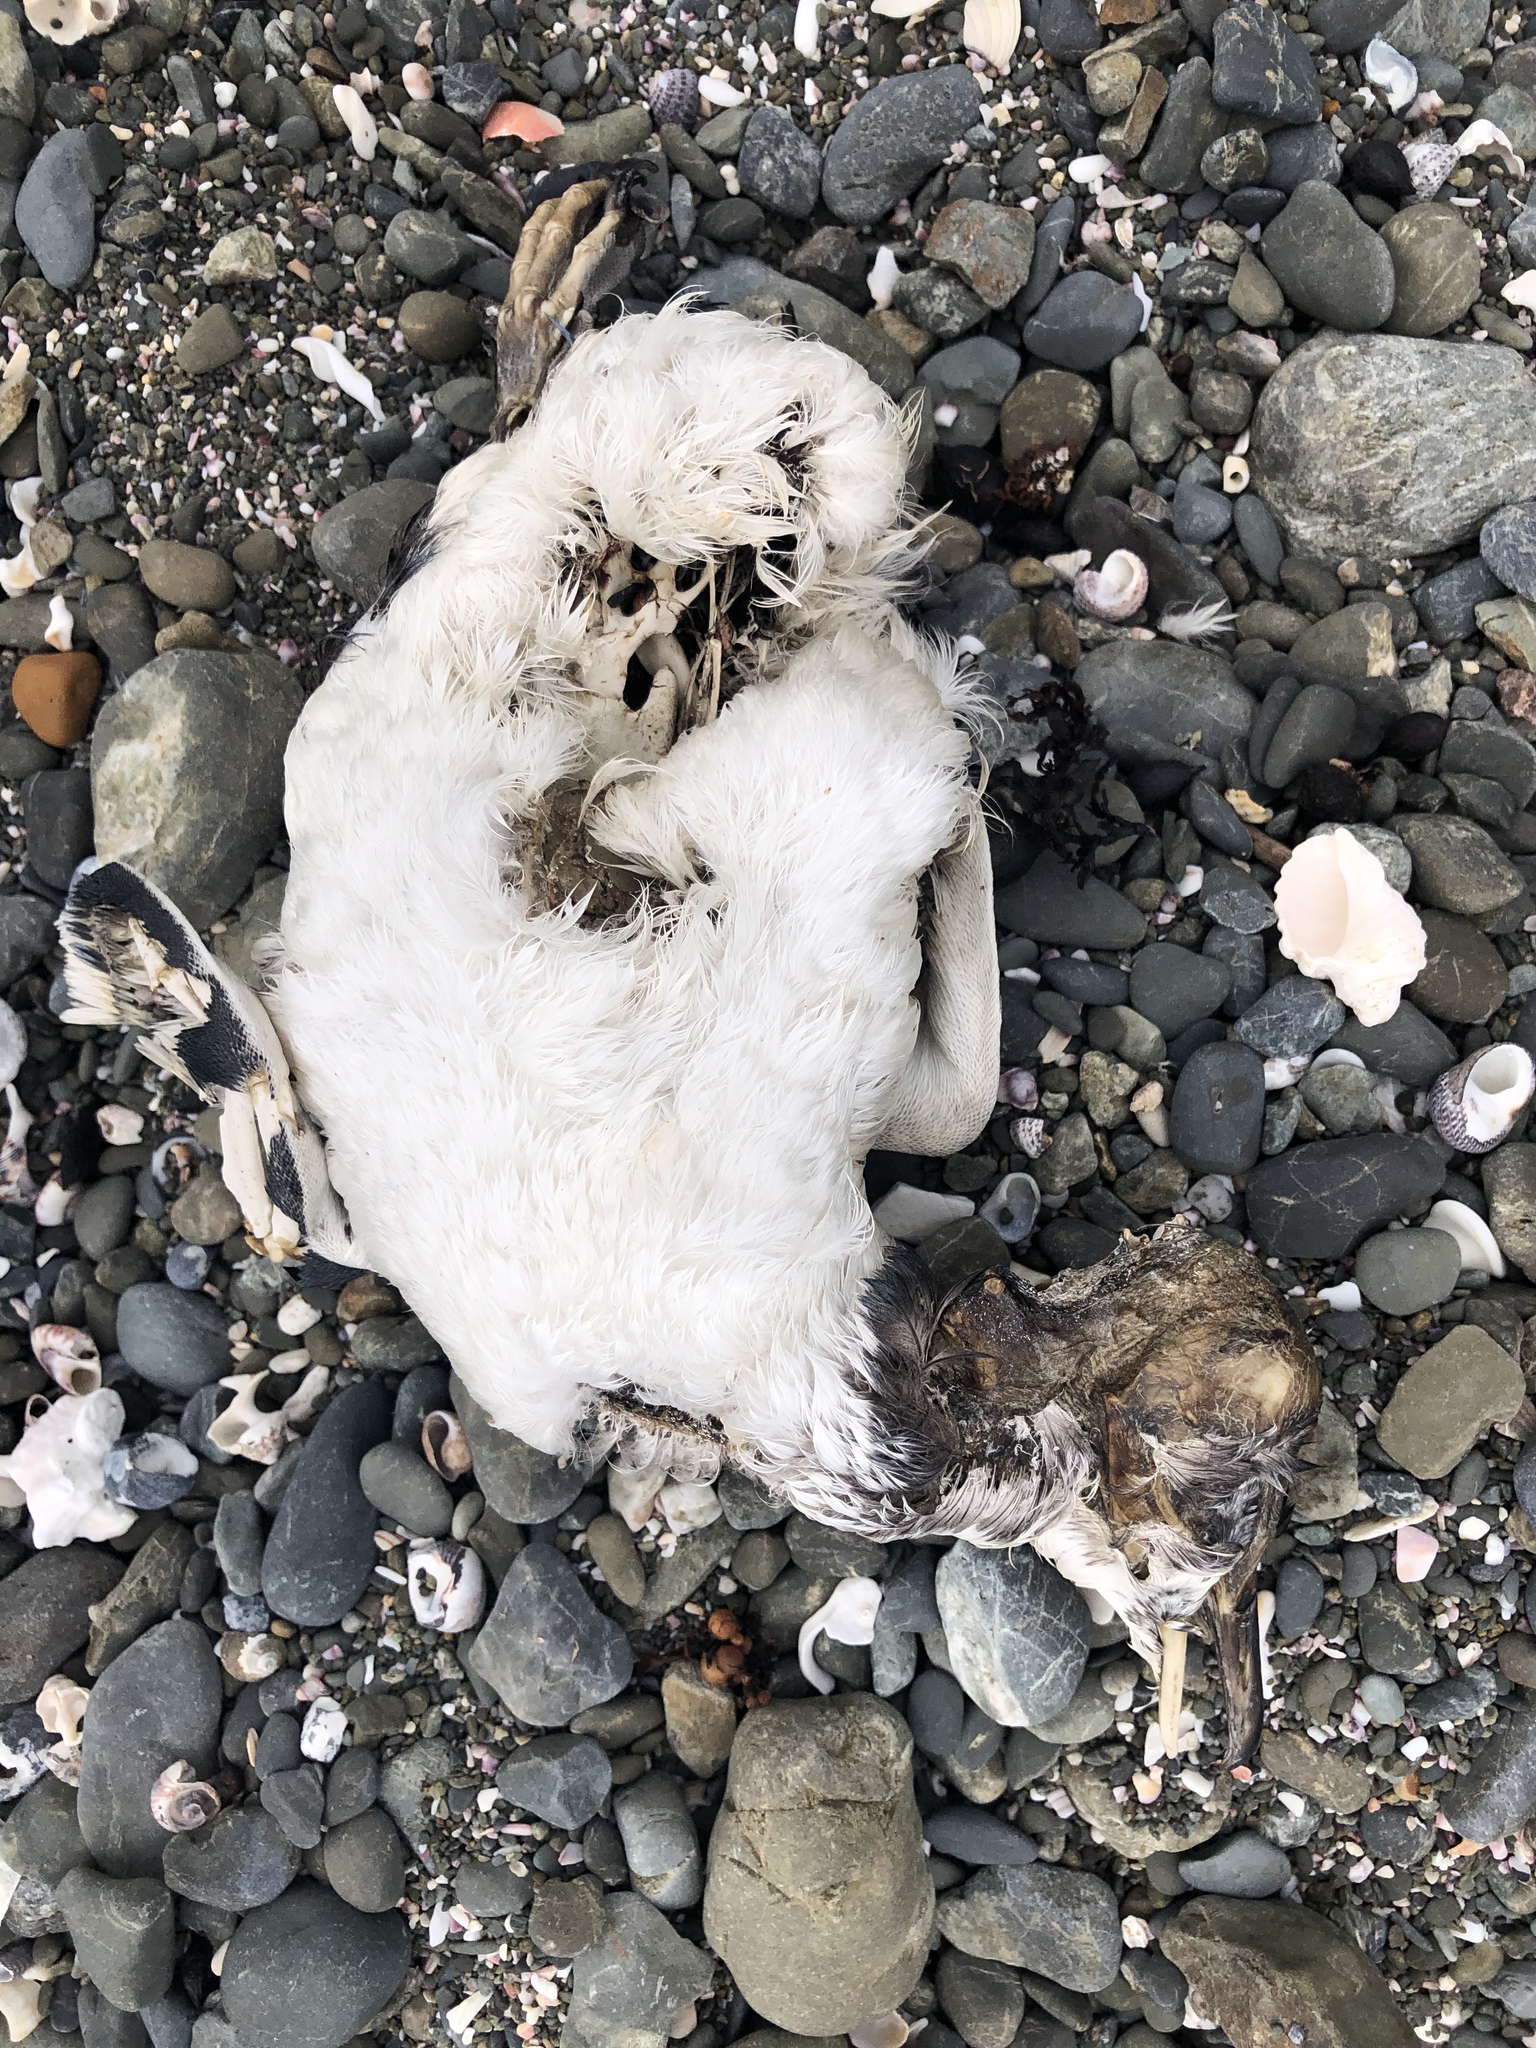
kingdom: Animalia
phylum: Chordata
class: Aves
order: Sphenisciformes
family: Spheniscidae
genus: Eudyptula
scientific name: Eudyptula minor
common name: Little penguin
